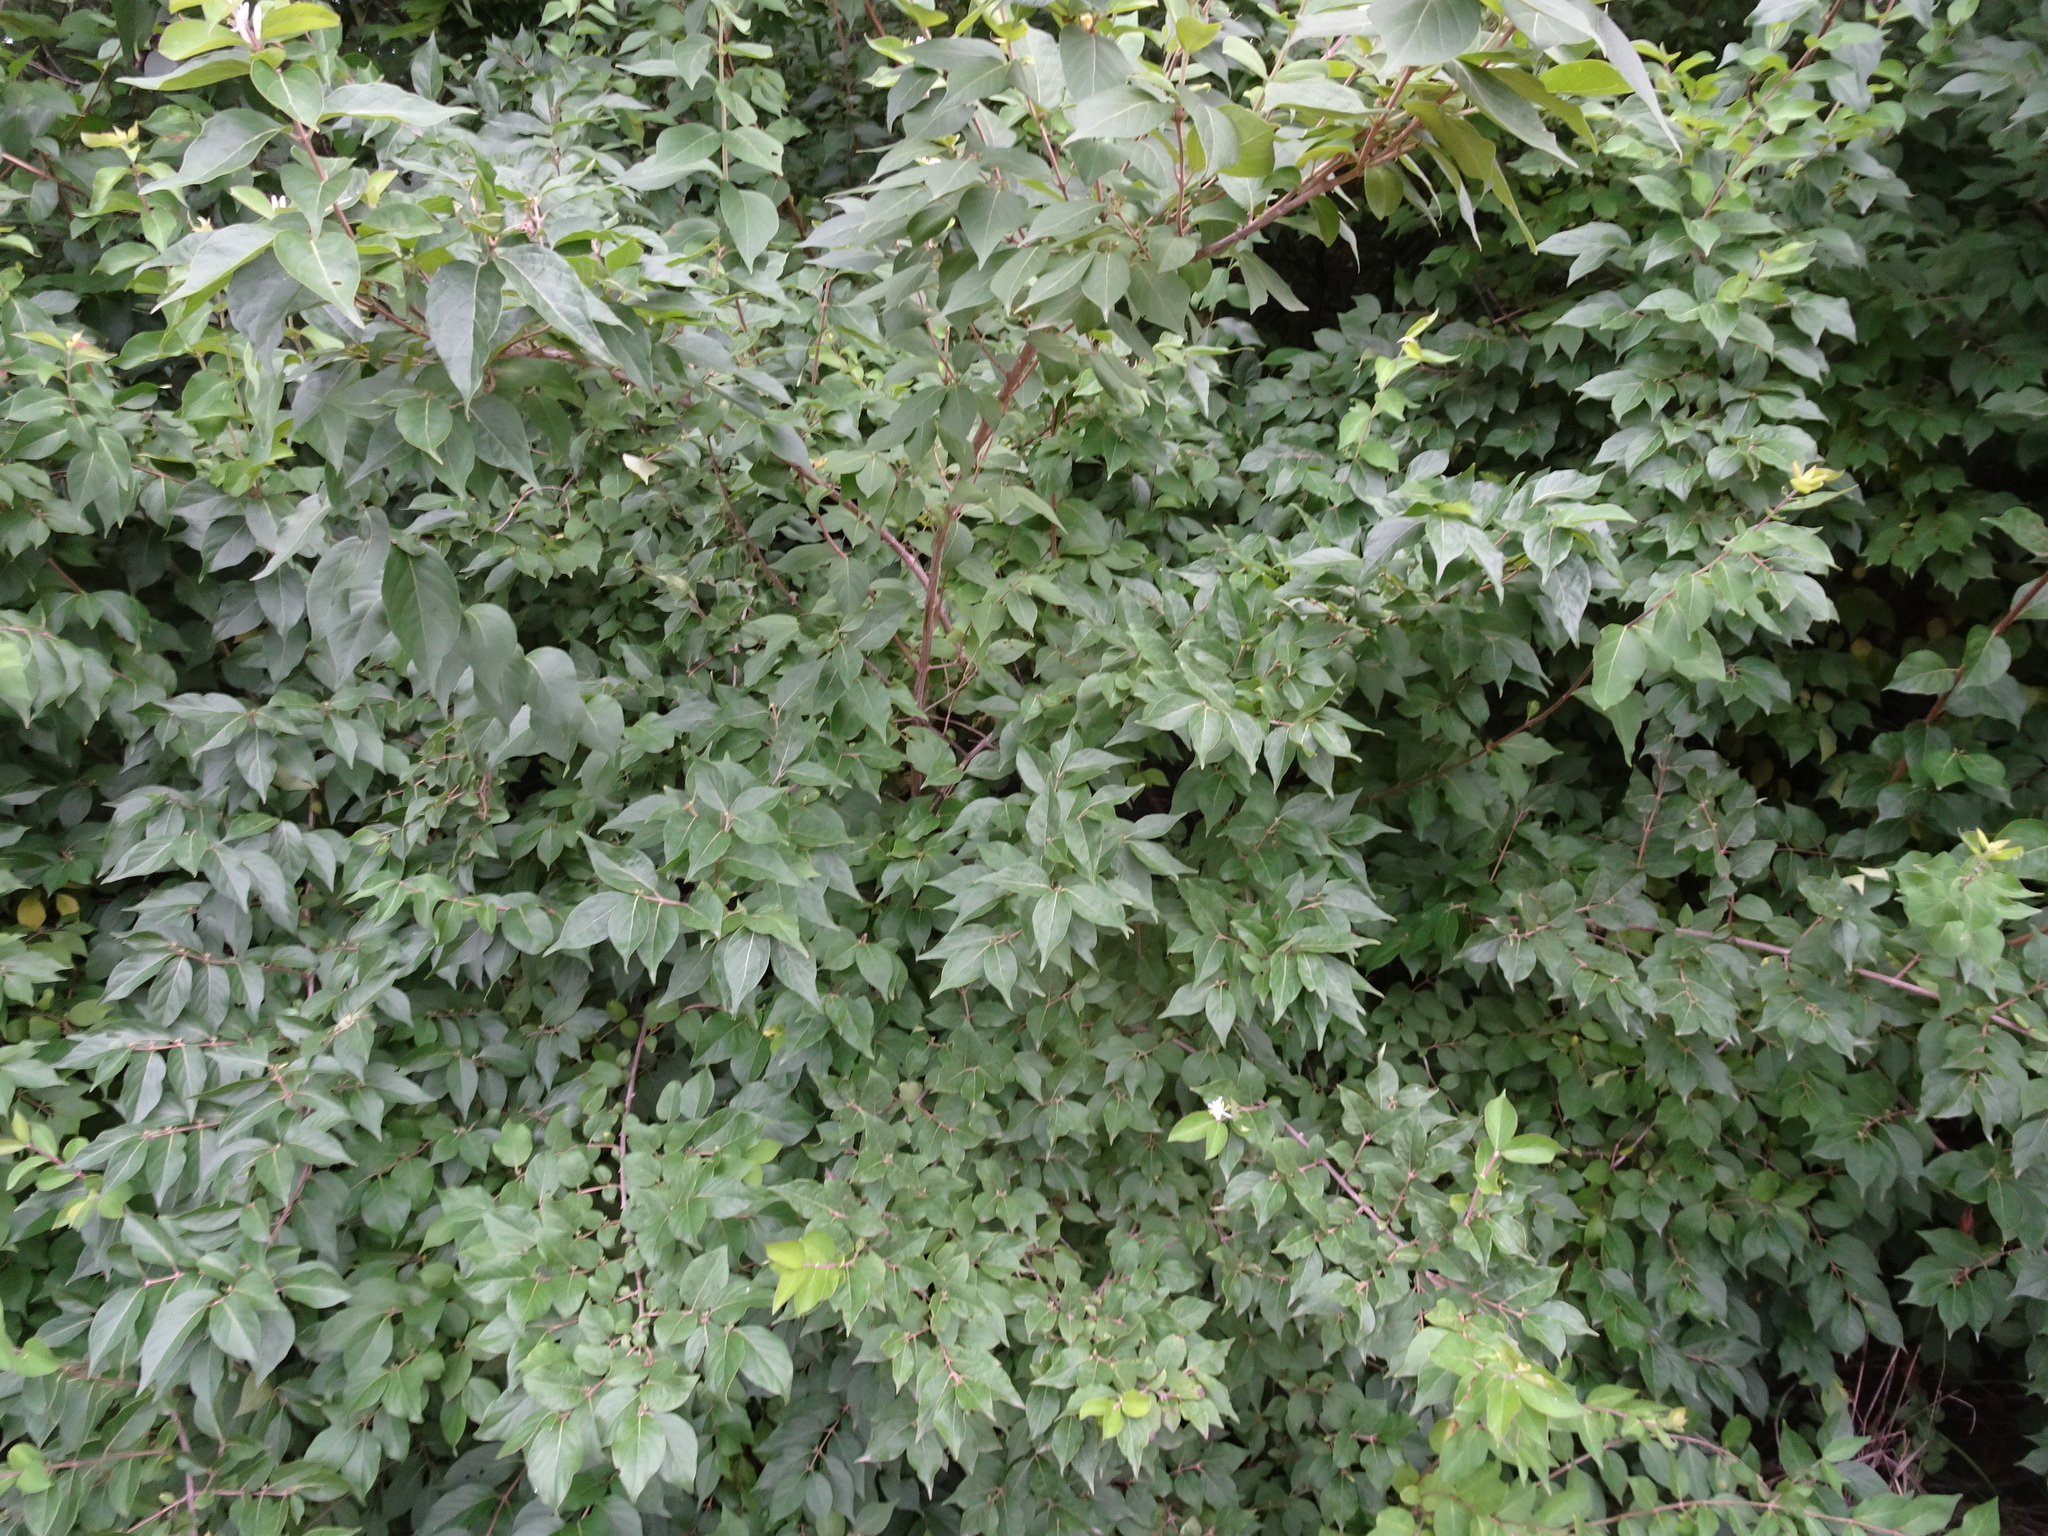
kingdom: Plantae
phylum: Tracheophyta
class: Magnoliopsida
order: Dipsacales
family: Caprifoliaceae
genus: Lonicera
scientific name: Lonicera maackii
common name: Amur honeysuckle
